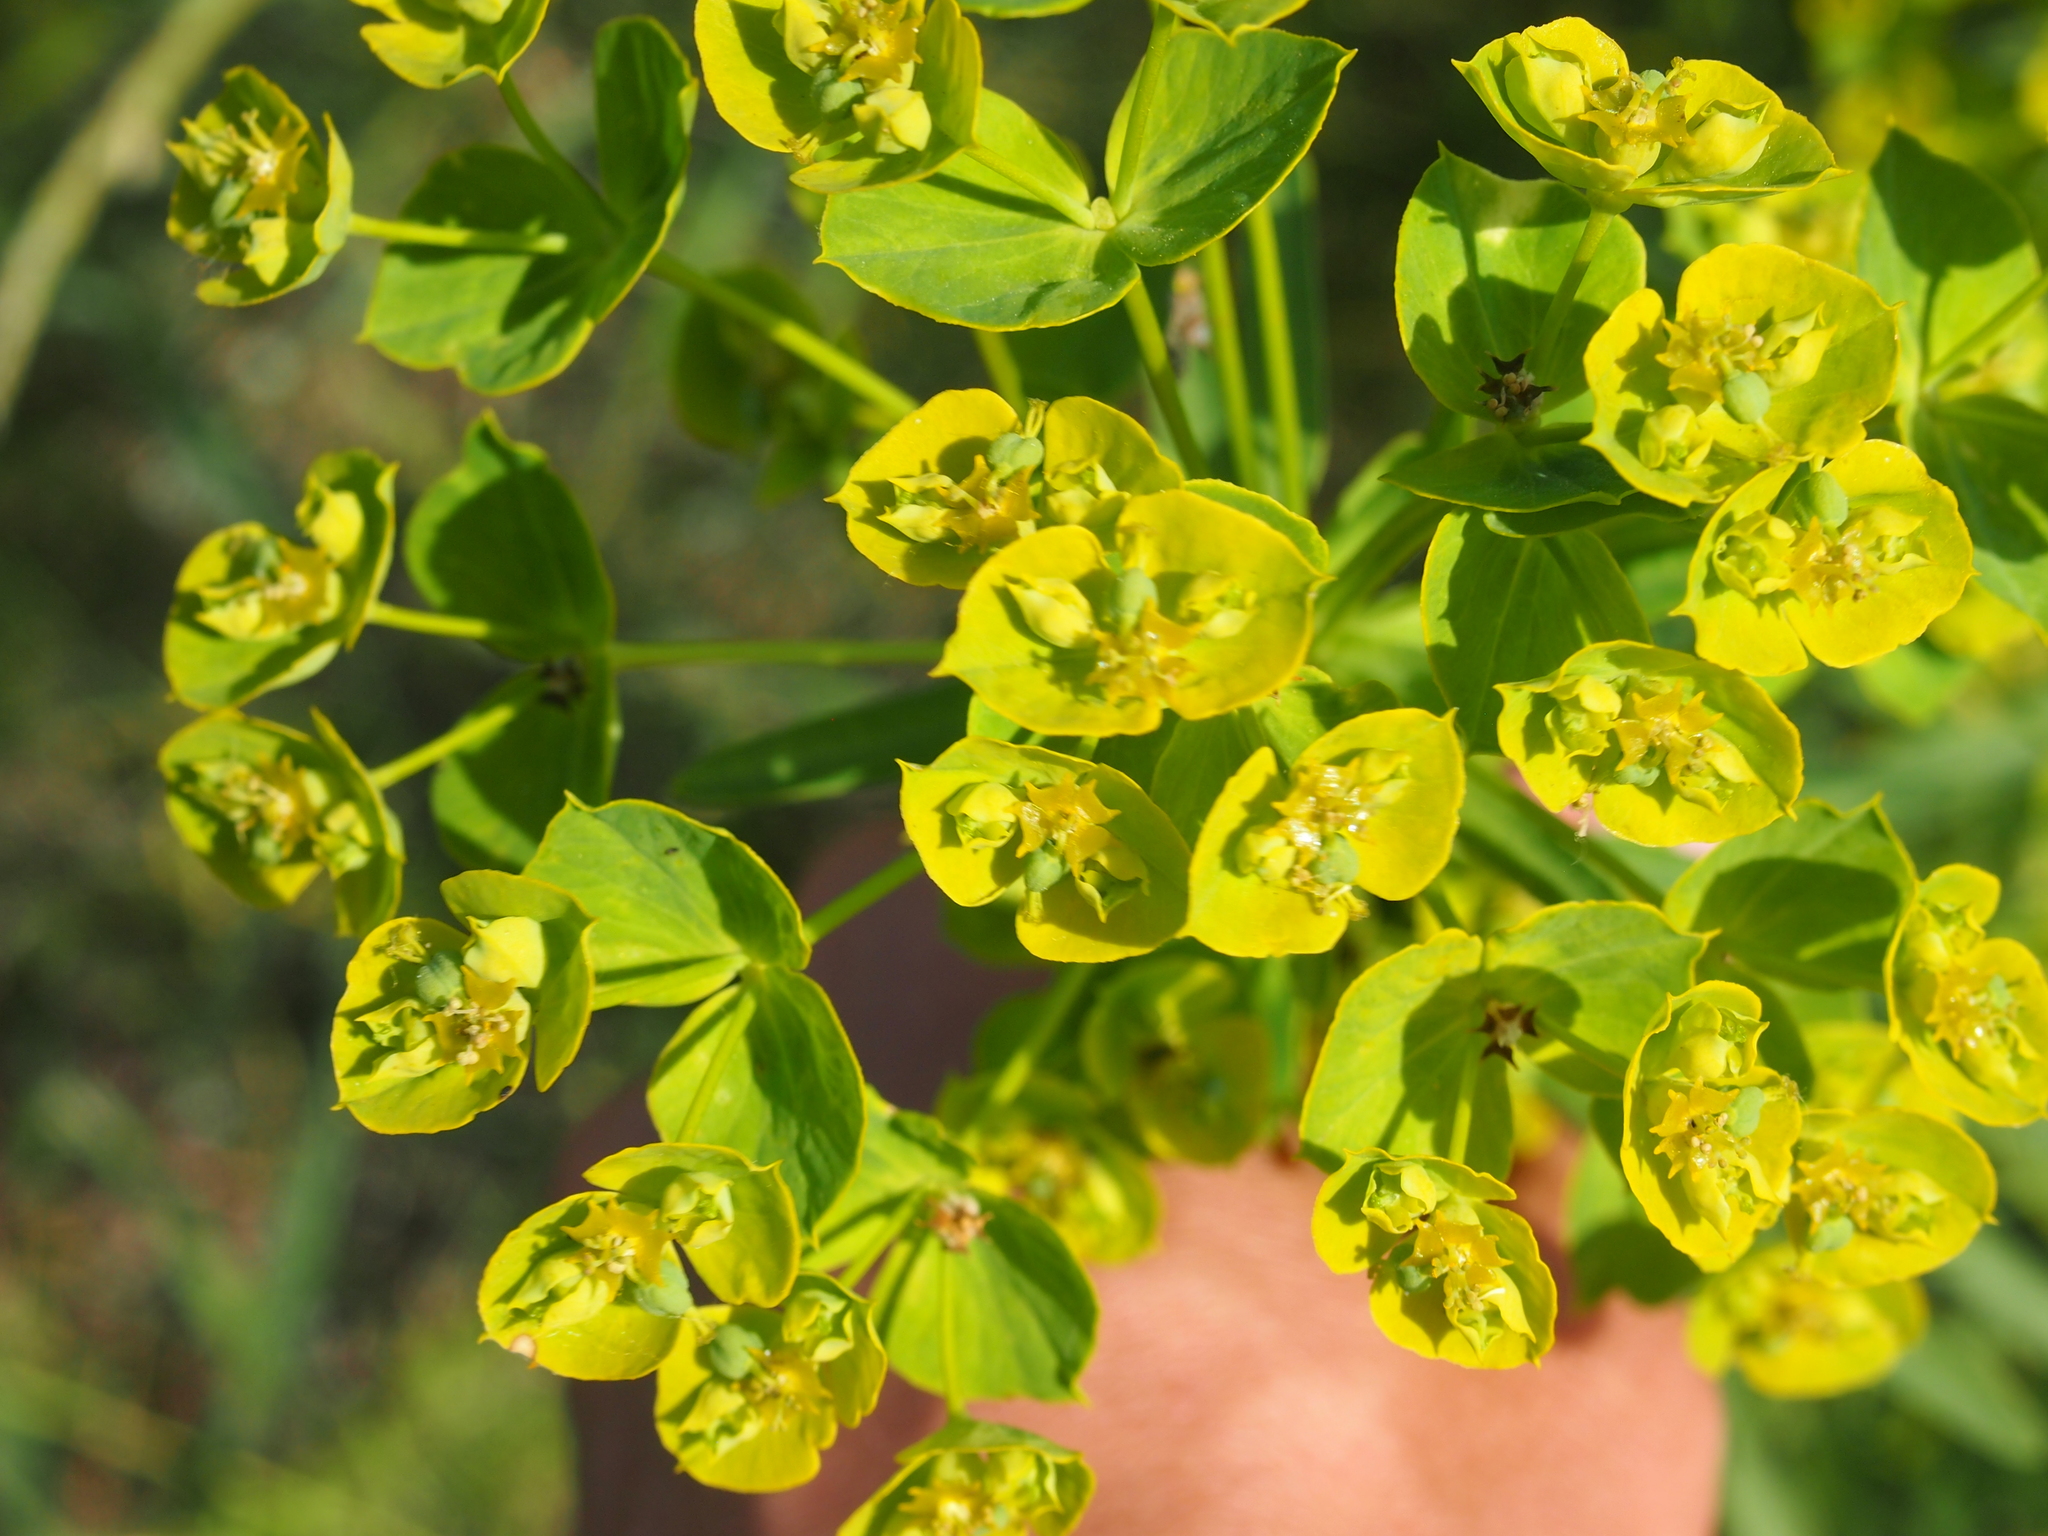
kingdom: Plantae
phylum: Tracheophyta
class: Magnoliopsida
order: Malpighiales
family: Euphorbiaceae
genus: Euphorbia
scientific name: Euphorbia esula
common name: Leafy spurge
